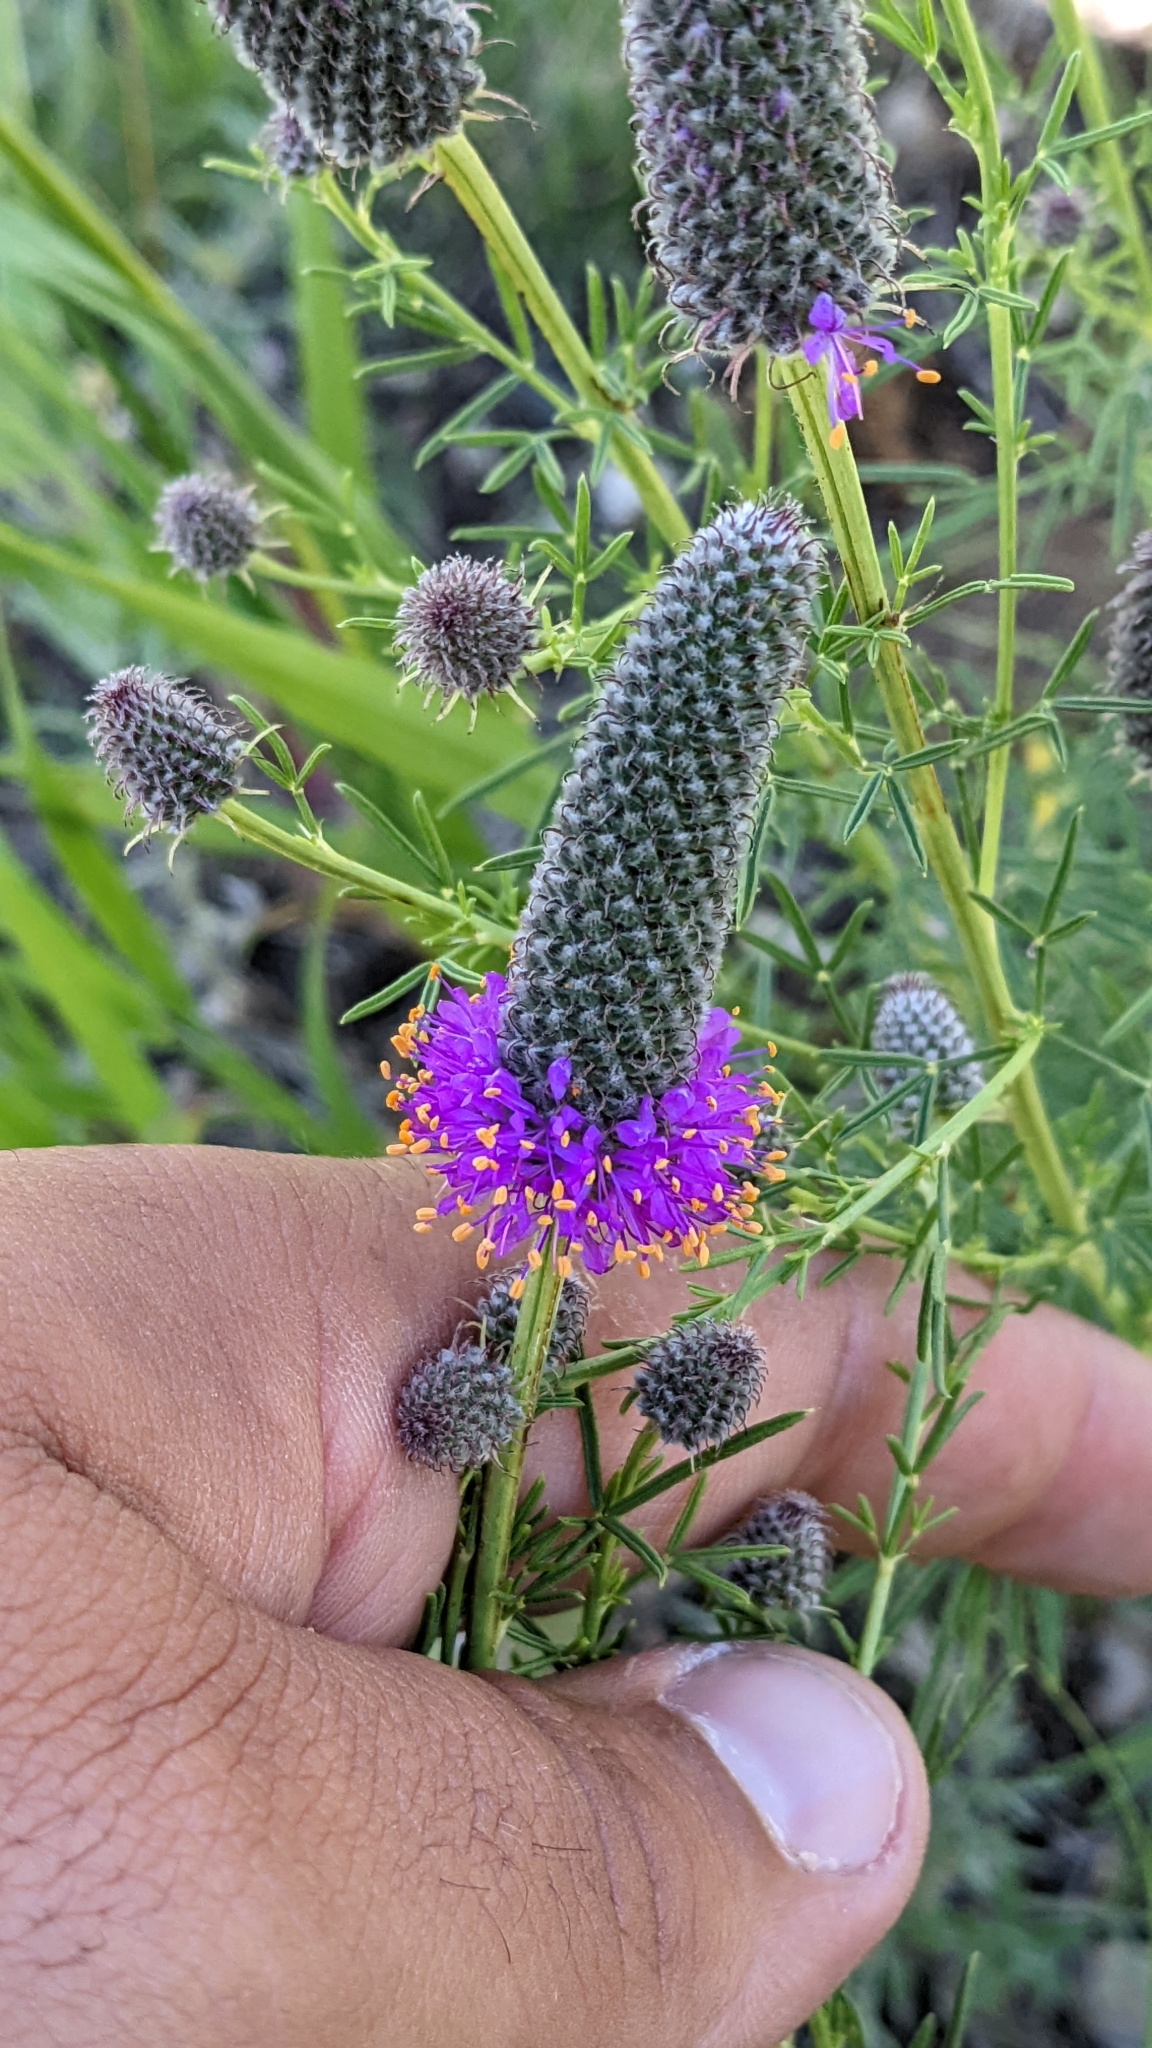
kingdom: Plantae
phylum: Tracheophyta
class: Magnoliopsida
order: Fabales
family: Fabaceae
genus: Dalea
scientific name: Dalea purpurea
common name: Purple prairie-clover
